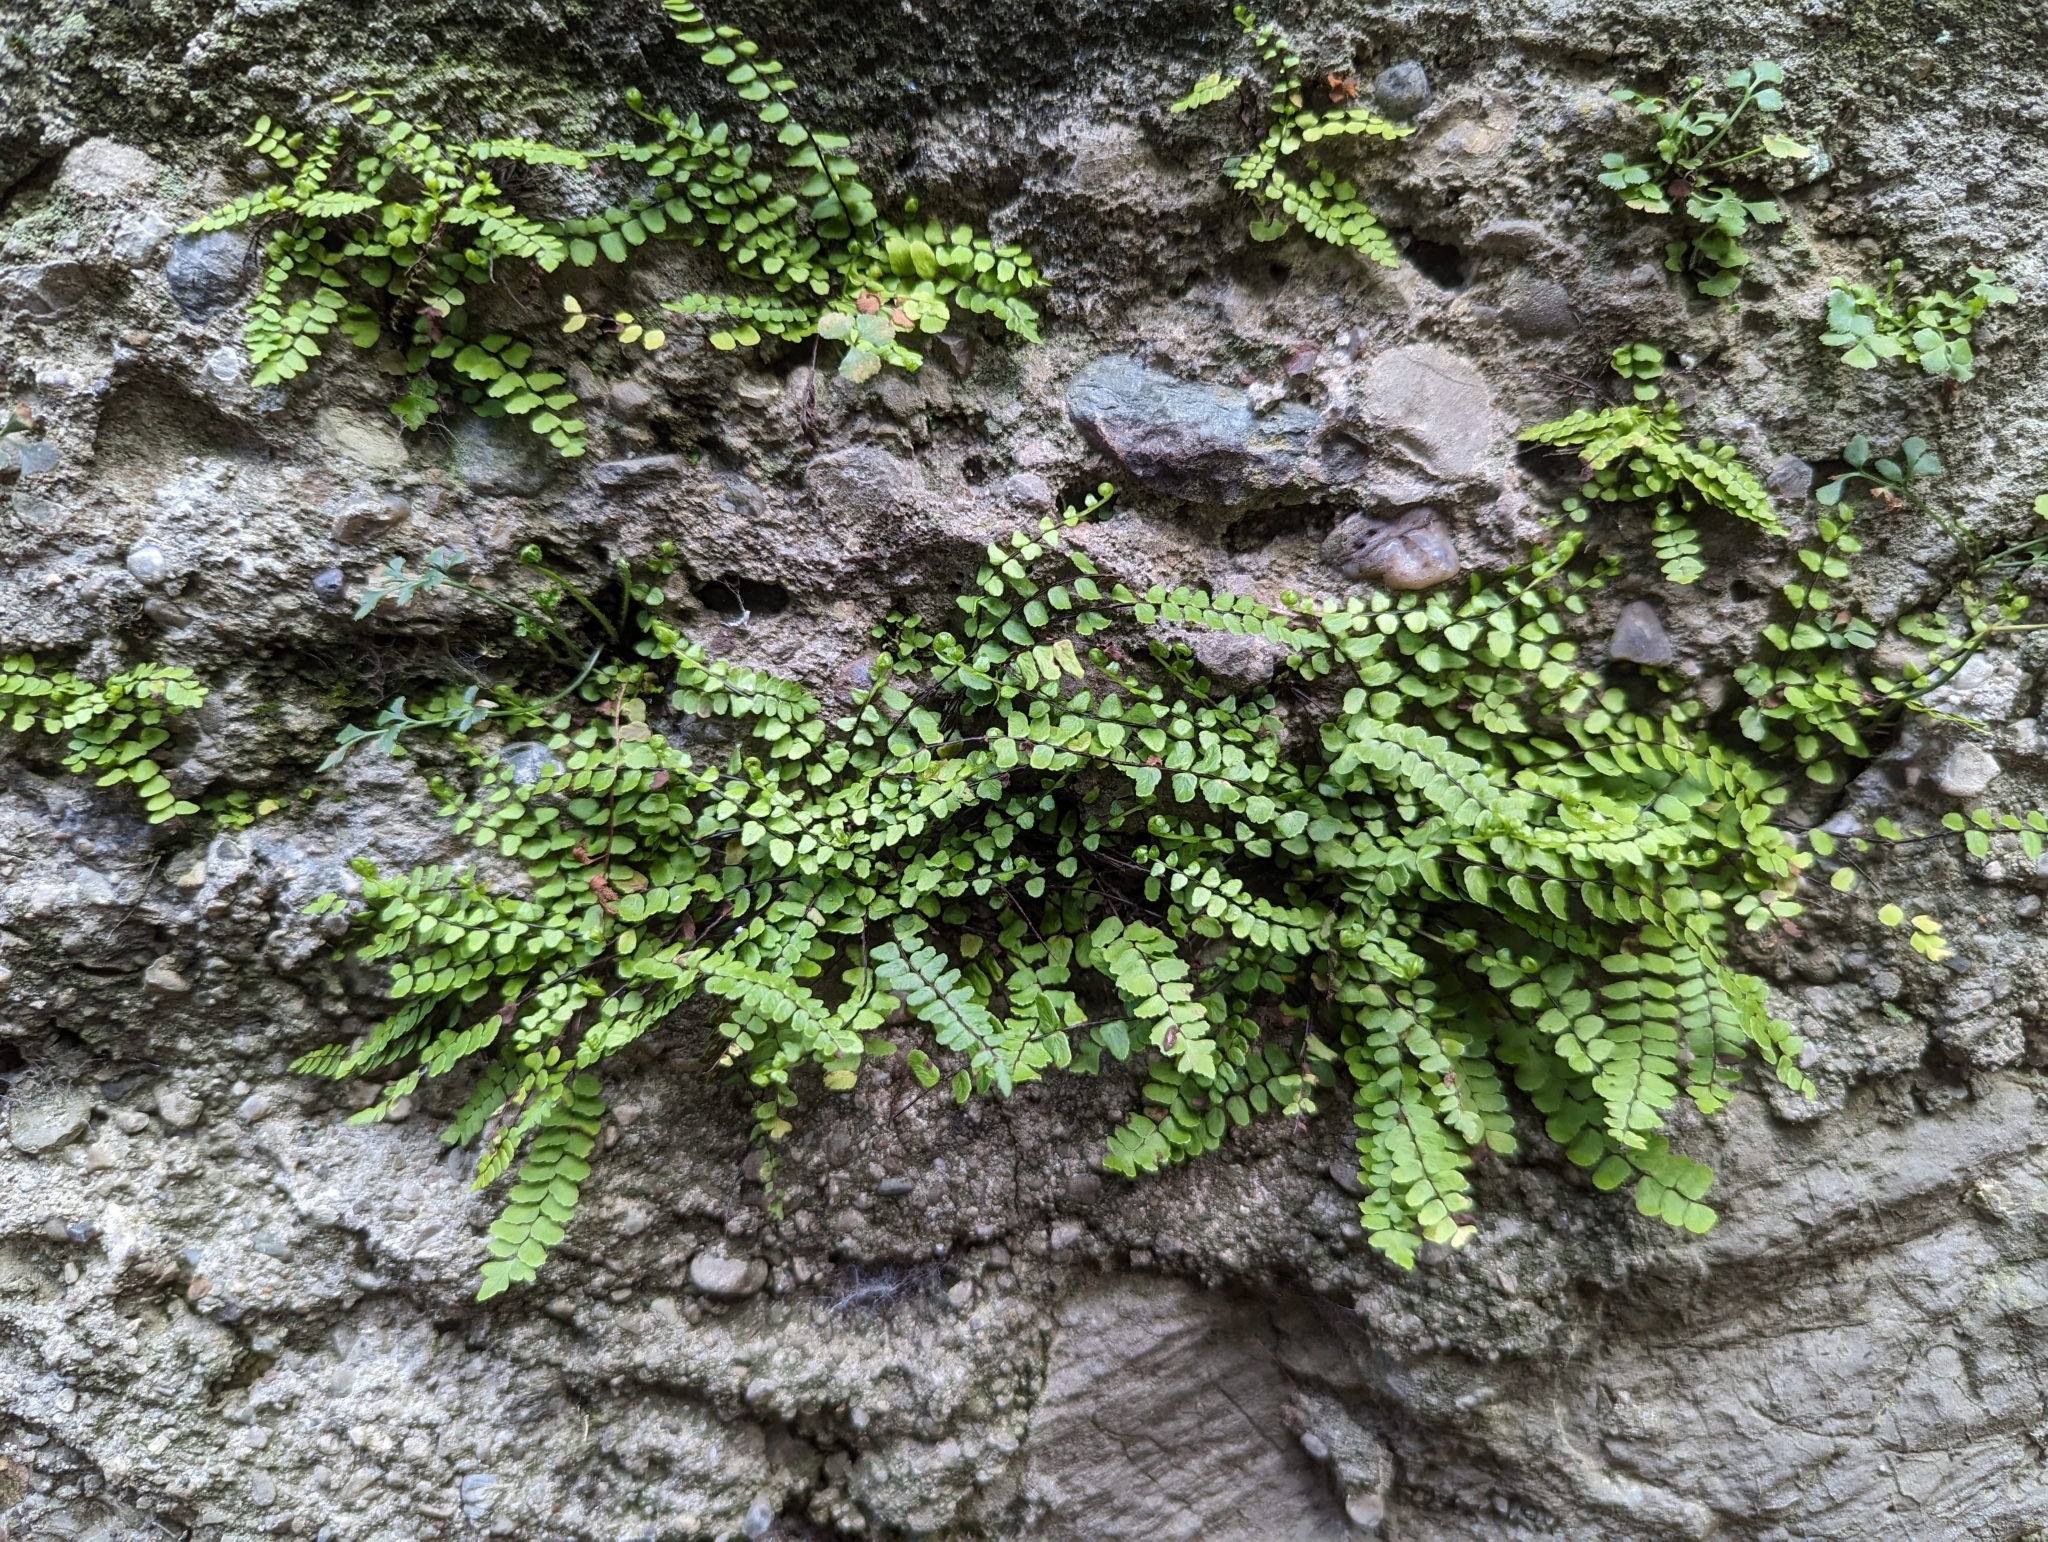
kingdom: Plantae
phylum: Tracheophyta
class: Polypodiopsida
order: Polypodiales
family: Aspleniaceae
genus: Asplenium
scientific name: Asplenium trichomanes
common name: Maidenhair spleenwort
